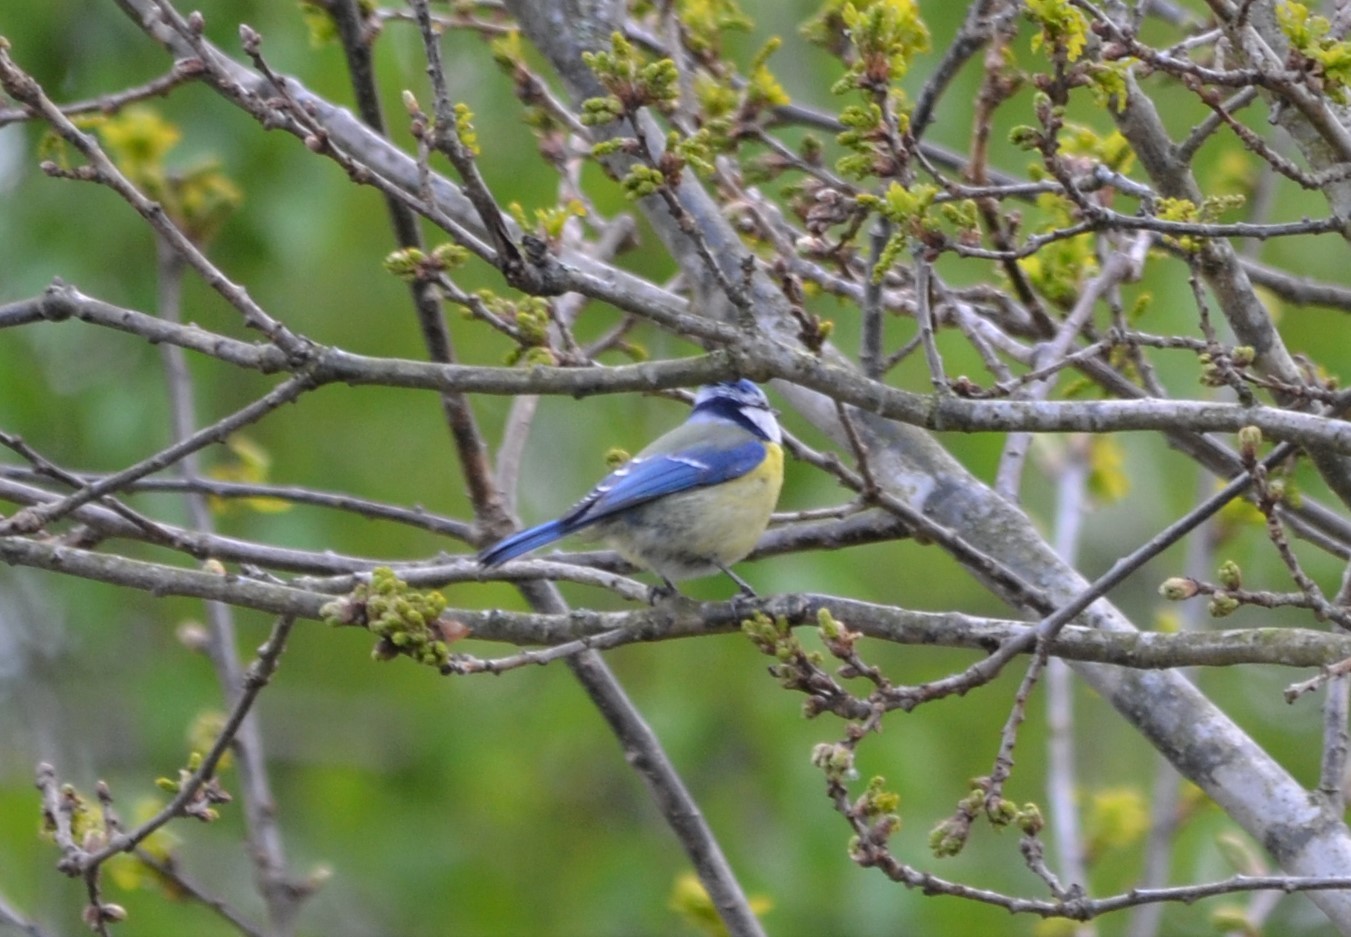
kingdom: Animalia
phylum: Chordata
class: Aves
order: Passeriformes
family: Paridae
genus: Cyanistes
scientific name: Cyanistes caeruleus
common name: Eurasian blue tit
